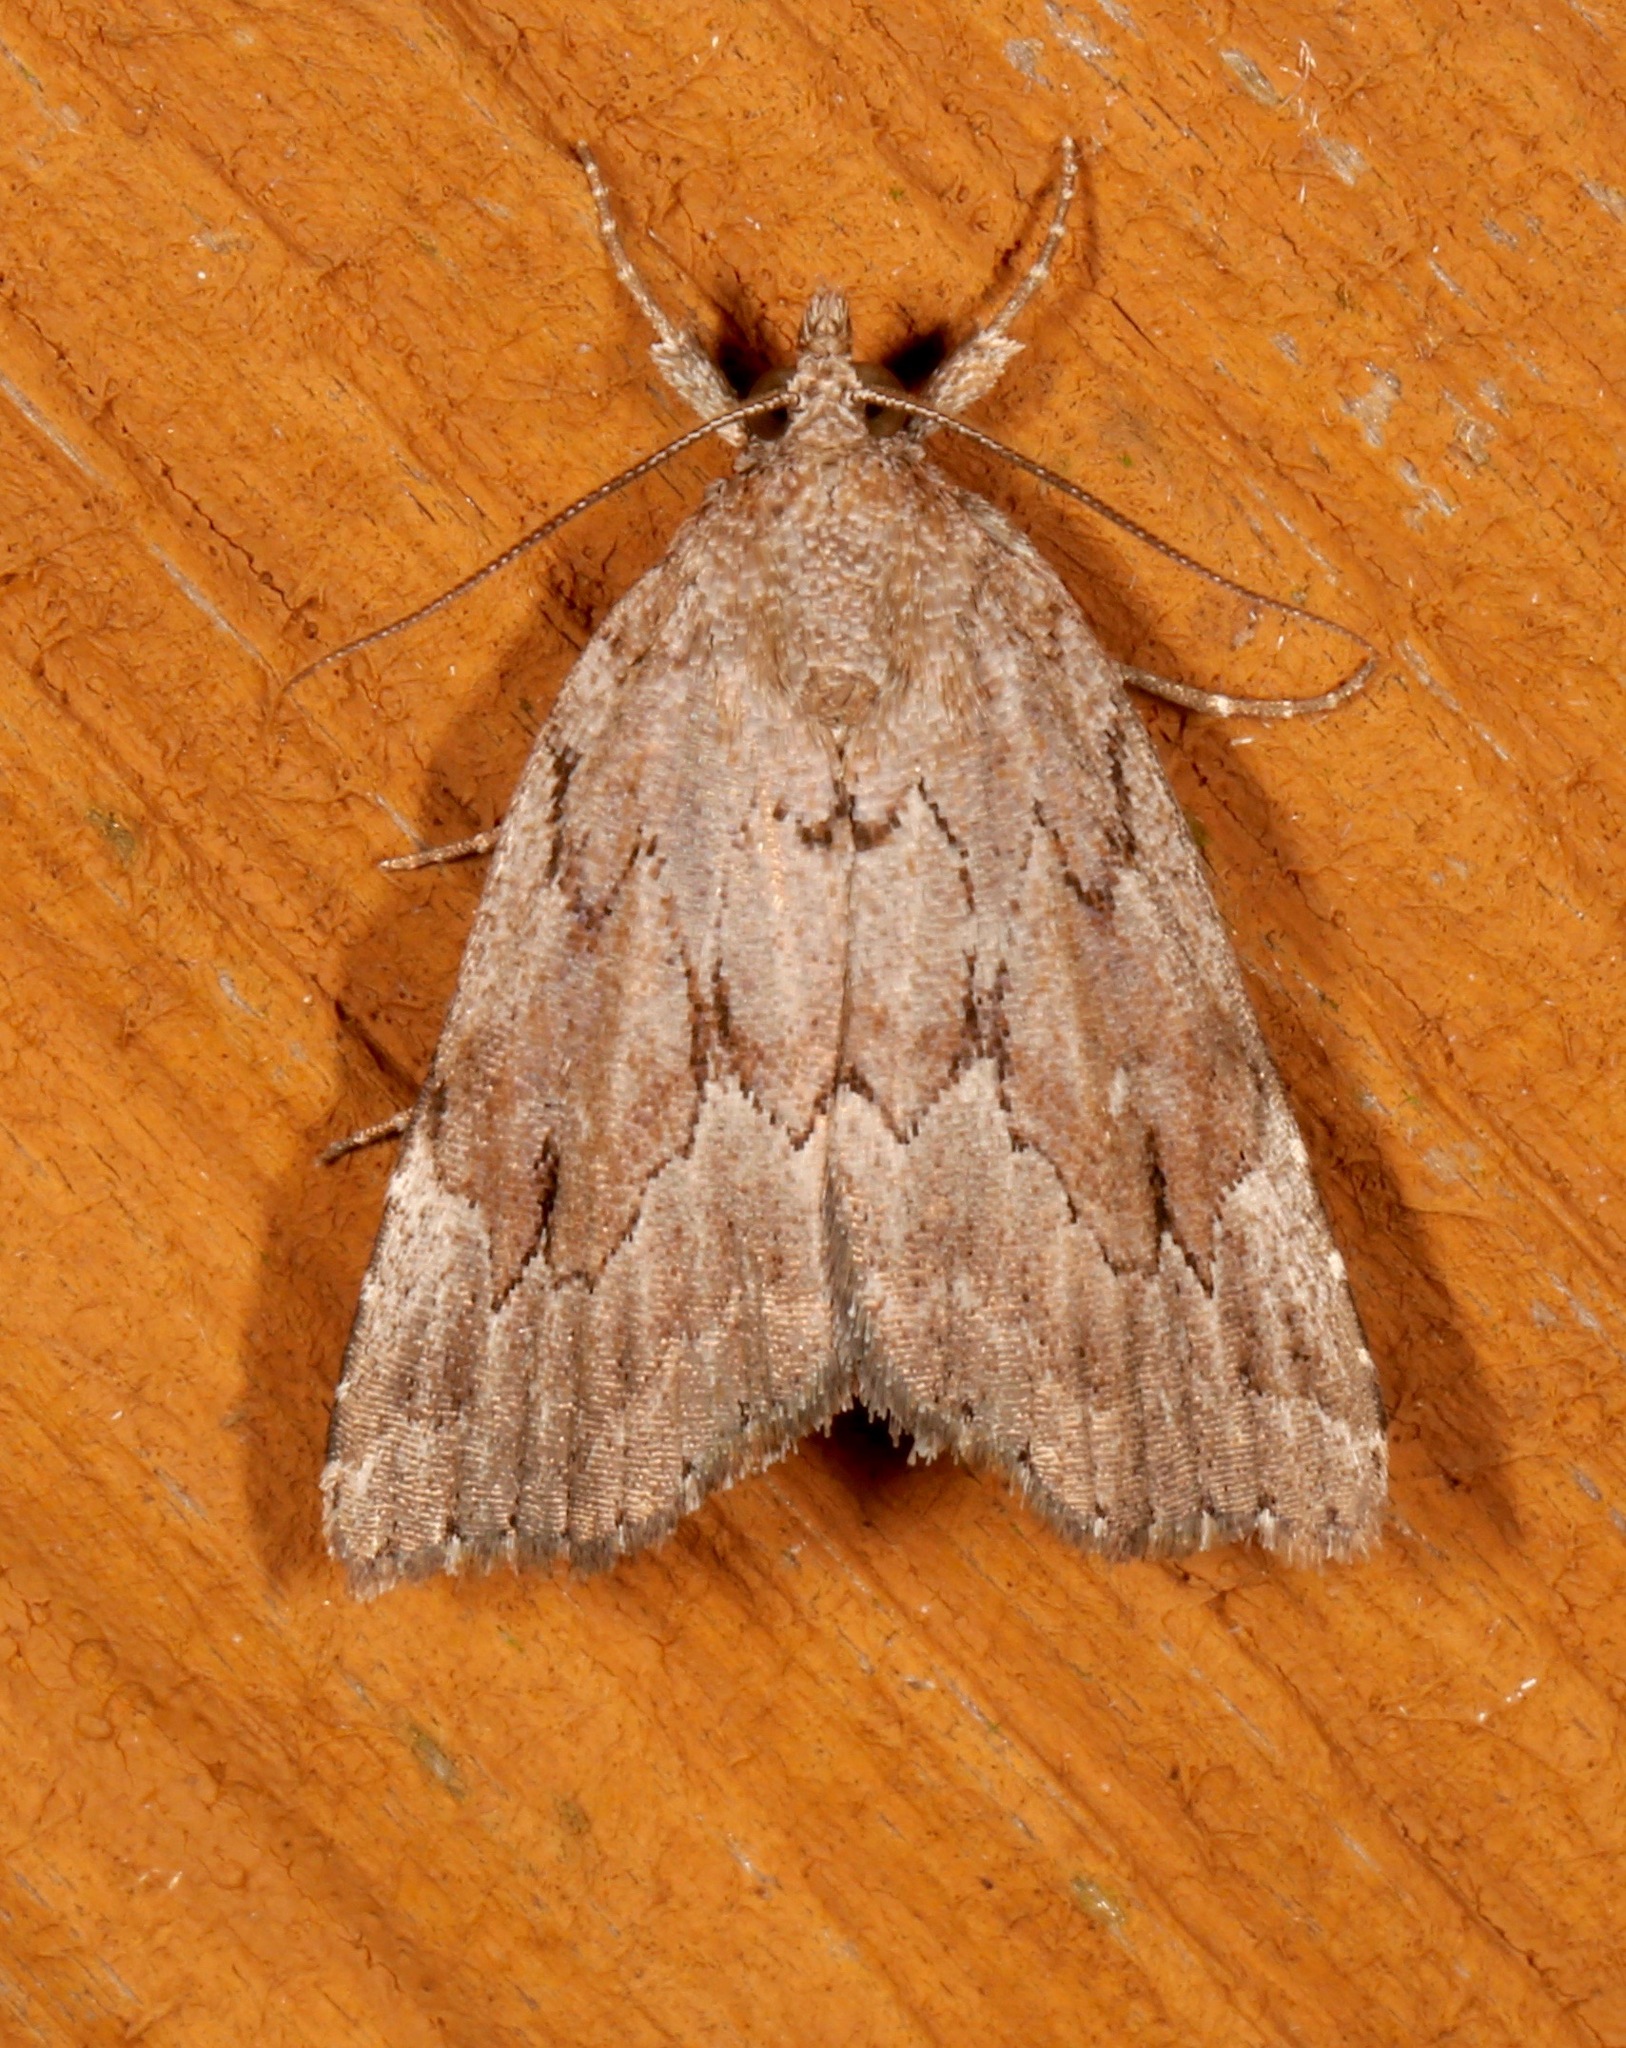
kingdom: Animalia
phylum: Arthropoda
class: Insecta
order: Lepidoptera
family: Erebidae
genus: Cutina
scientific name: Cutina albopunctella
